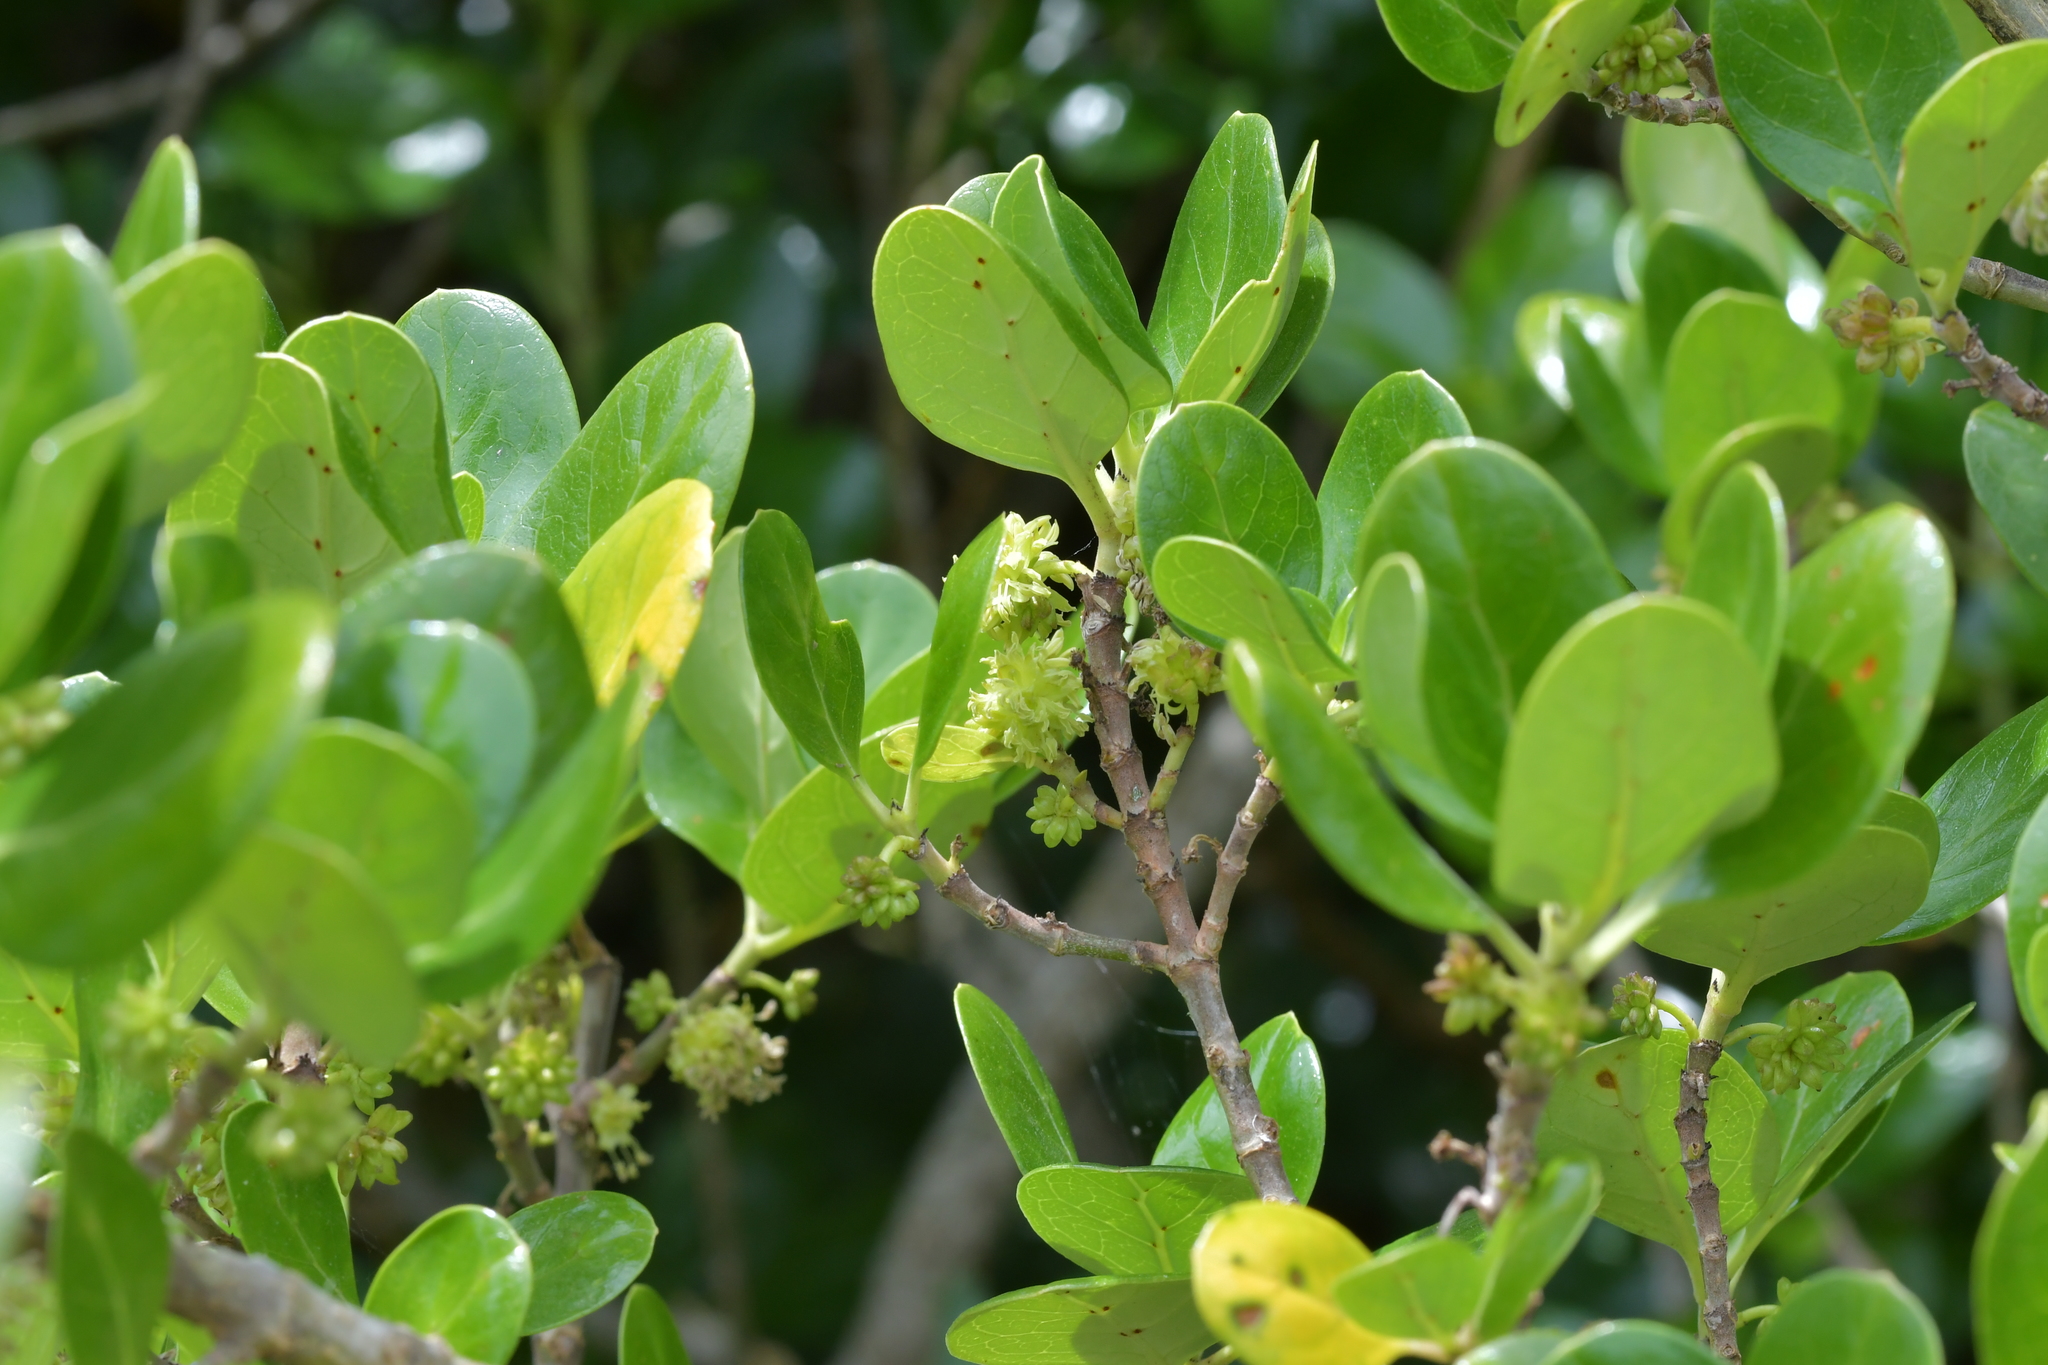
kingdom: Plantae
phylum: Tracheophyta
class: Magnoliopsida
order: Gentianales
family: Rubiaceae
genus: Coprosma
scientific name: Coprosma repens
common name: Tree bedstraw
